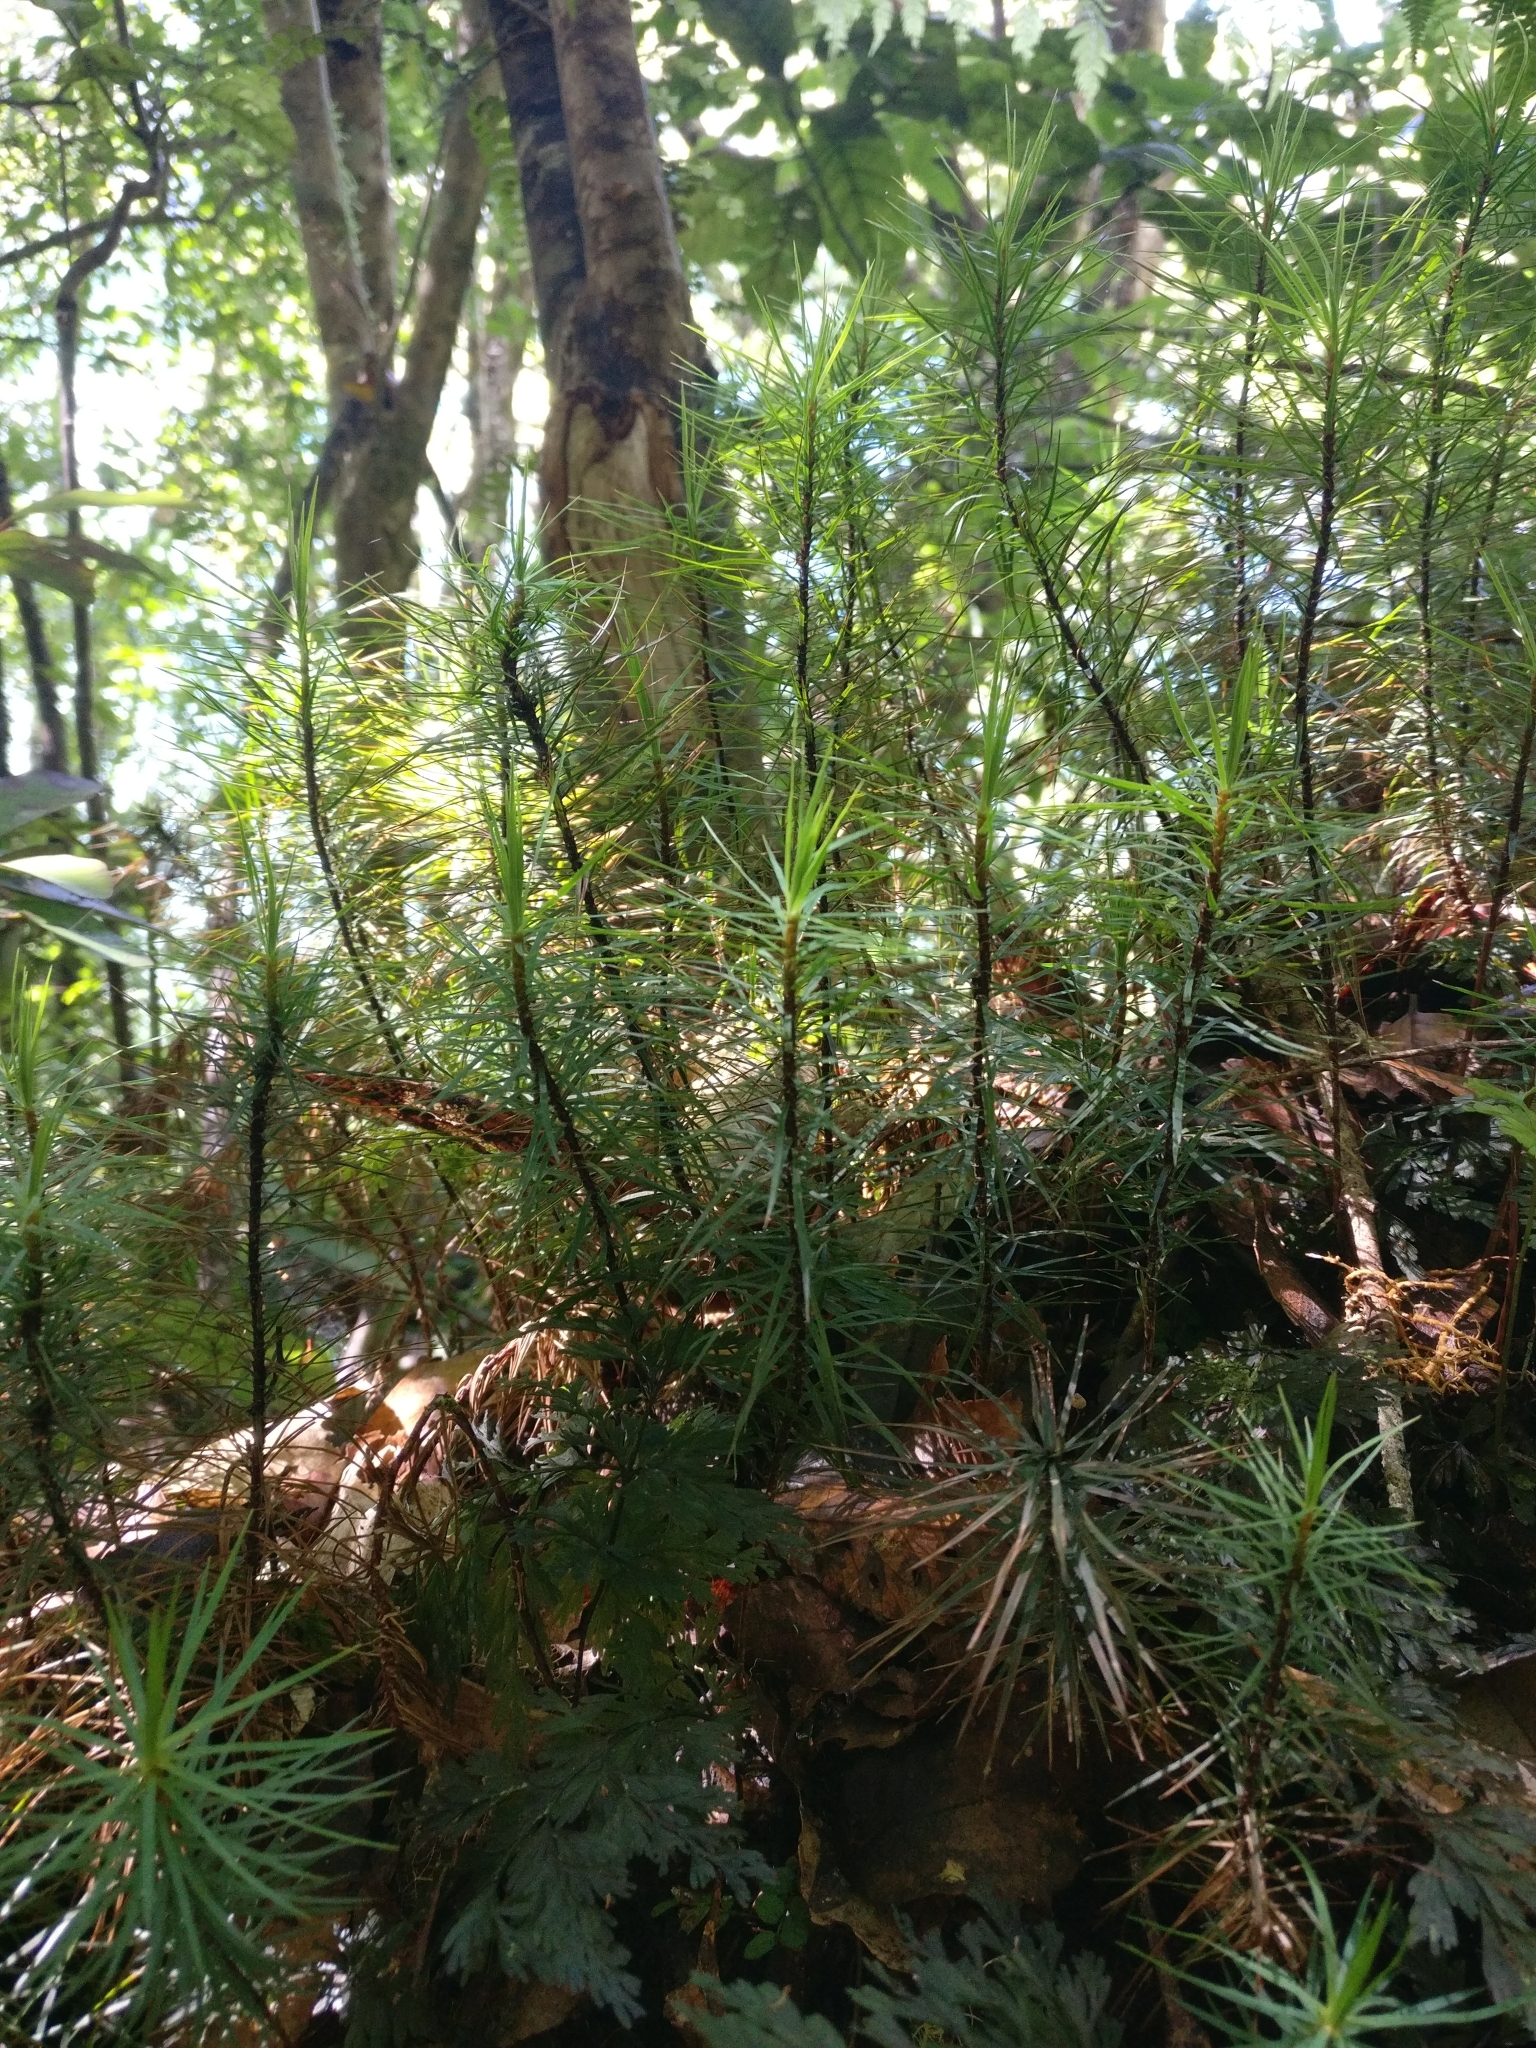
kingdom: Plantae
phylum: Bryophyta
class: Polytrichopsida
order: Polytrichales
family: Polytrichaceae
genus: Dawsonia
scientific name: Dawsonia superba
